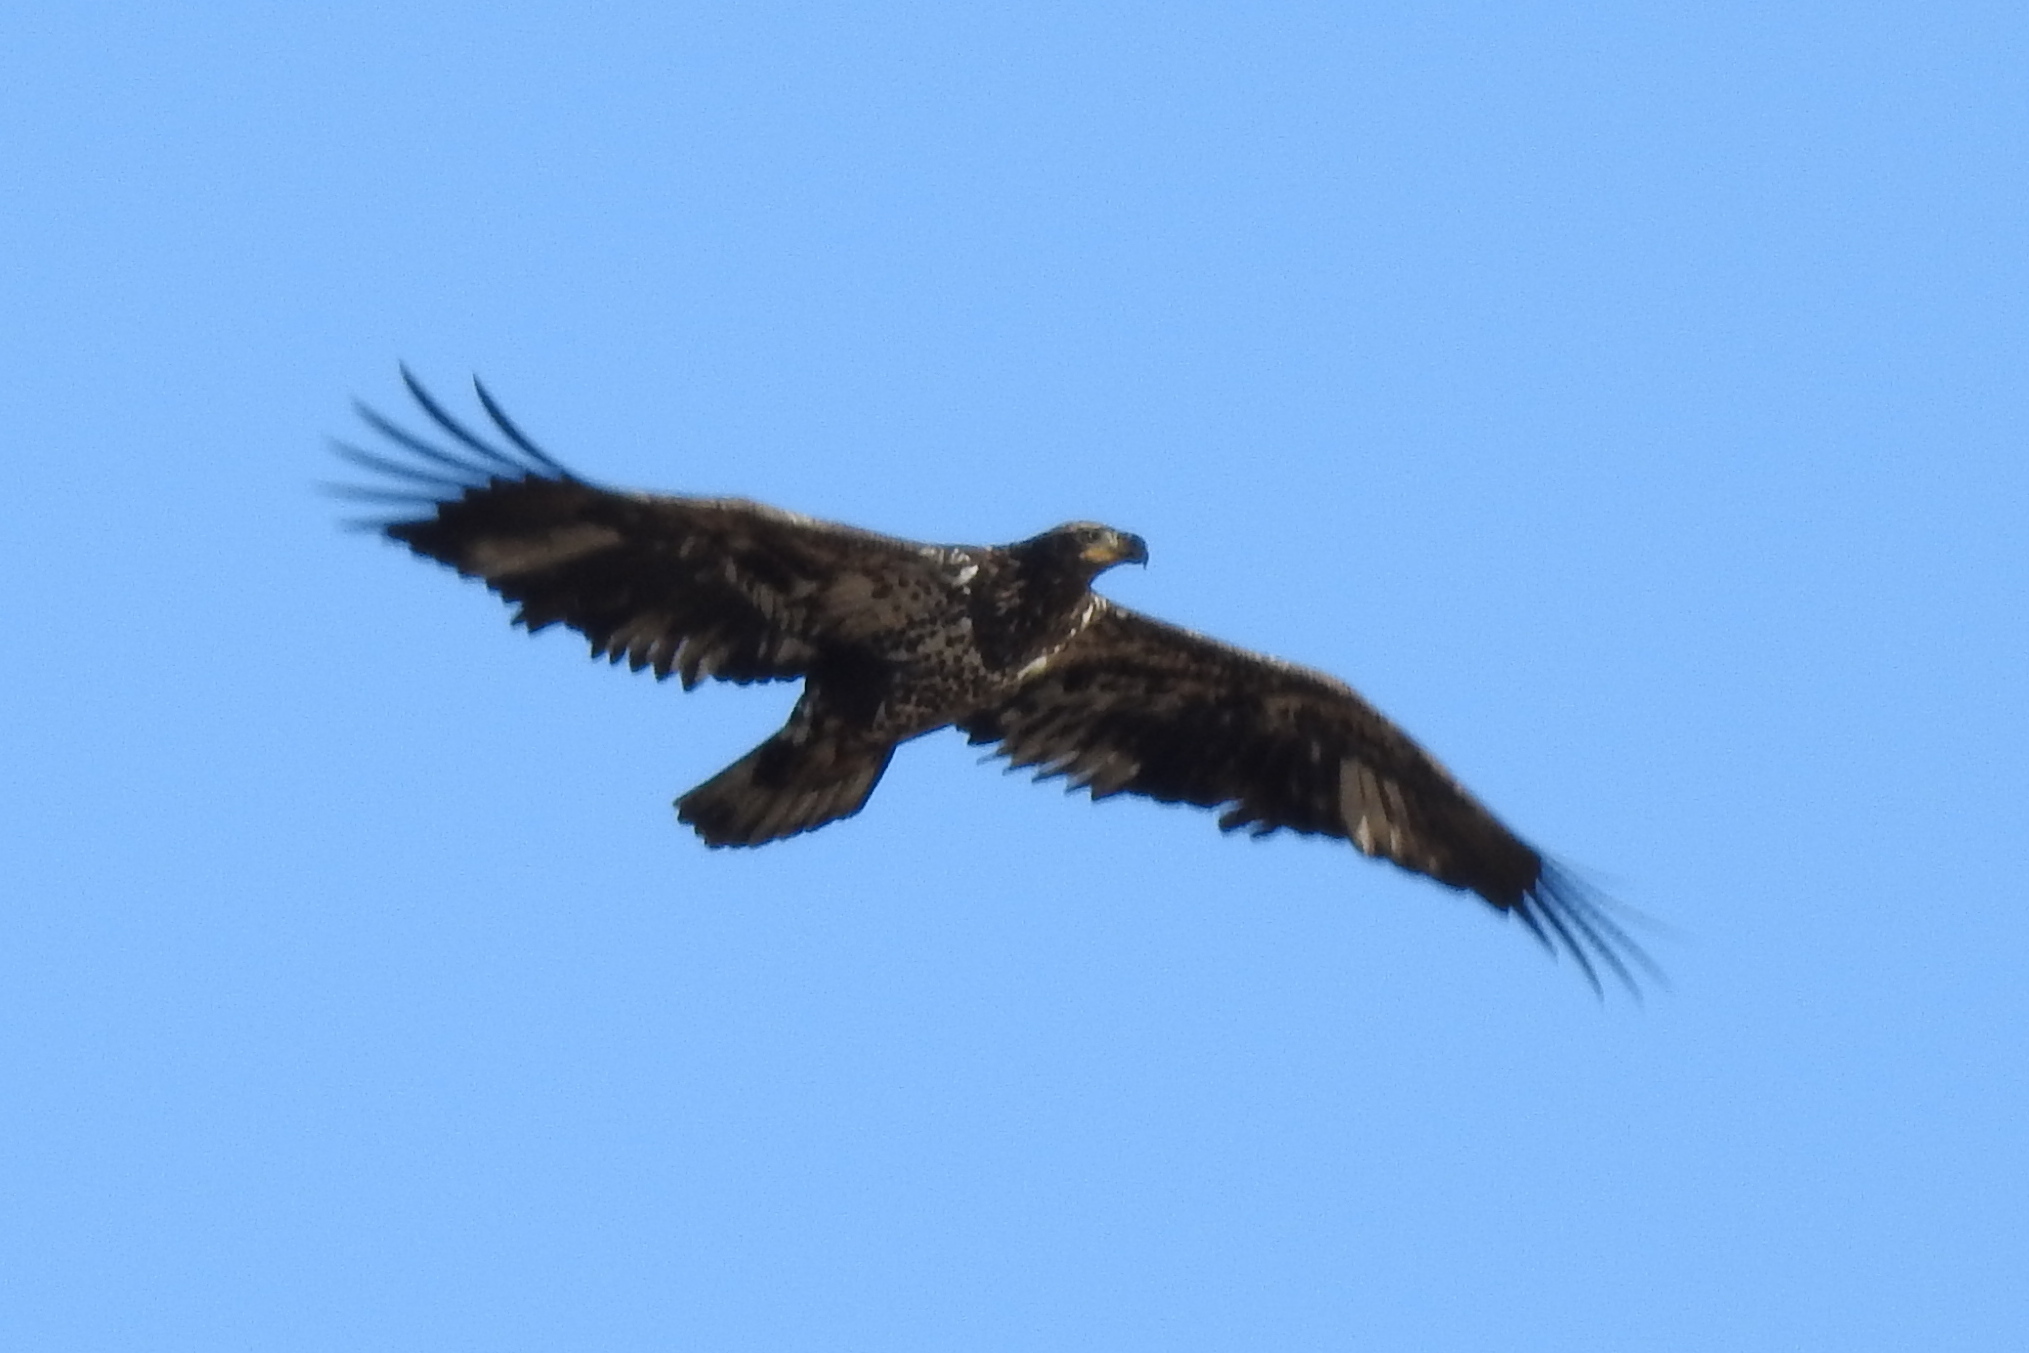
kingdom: Animalia
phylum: Chordata
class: Aves
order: Accipitriformes
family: Accipitridae
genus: Haliaeetus
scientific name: Haliaeetus leucocephalus
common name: Bald eagle
